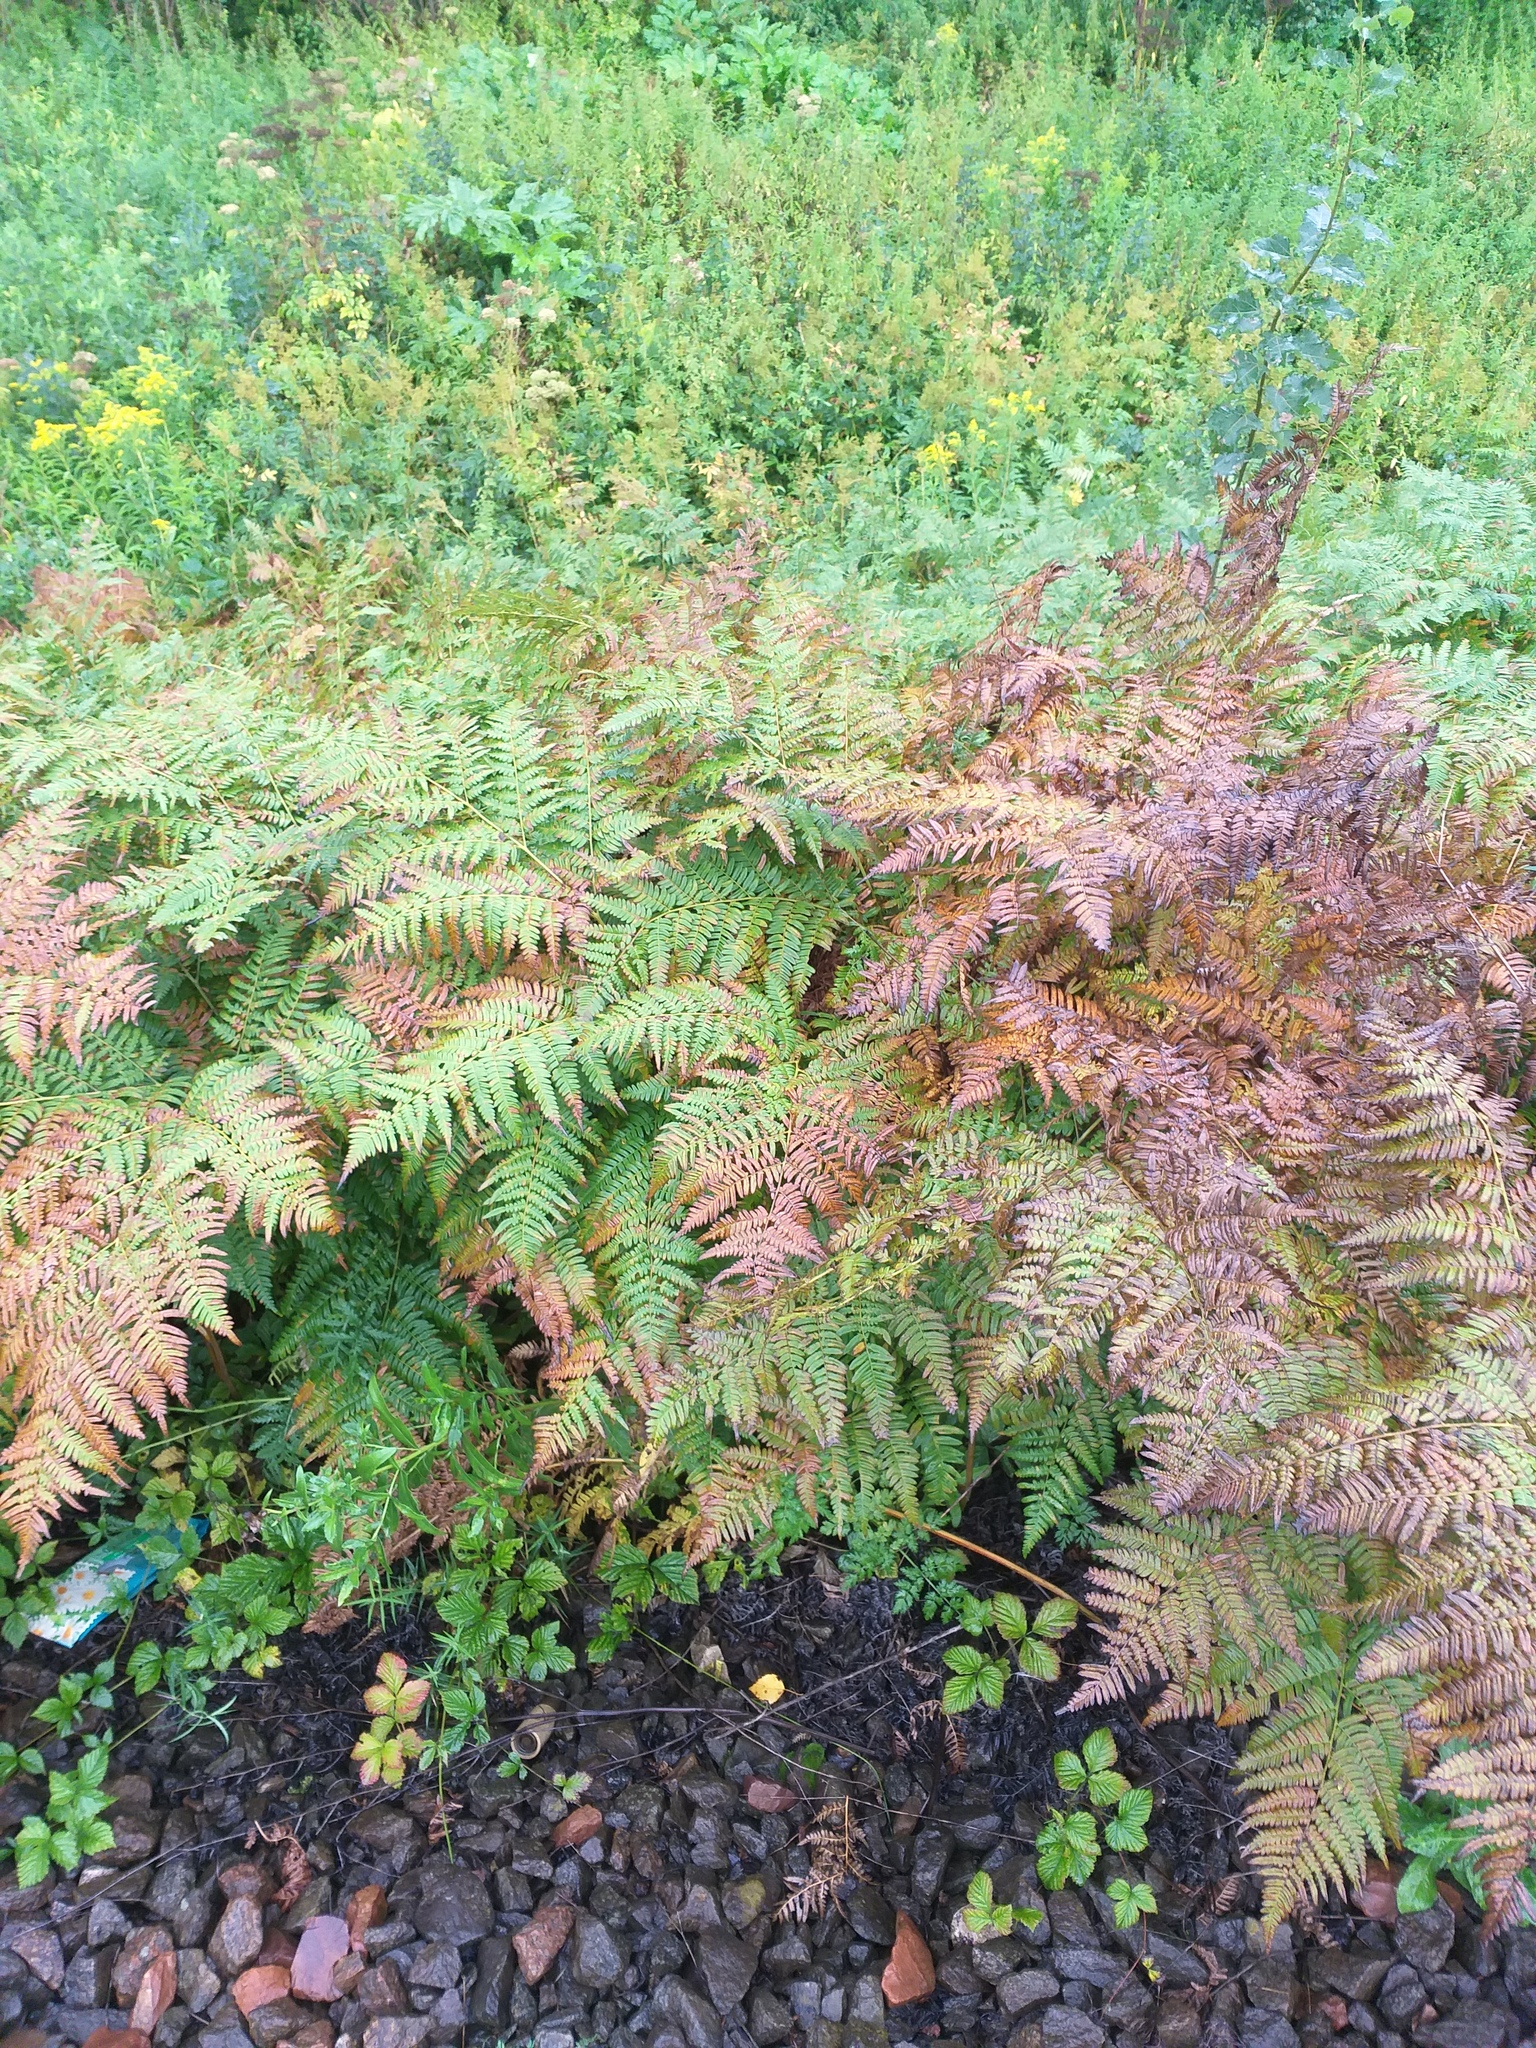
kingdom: Plantae
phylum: Tracheophyta
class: Polypodiopsida
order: Polypodiales
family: Dennstaedtiaceae
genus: Pteridium
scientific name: Pteridium aquilinum
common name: Bracken
